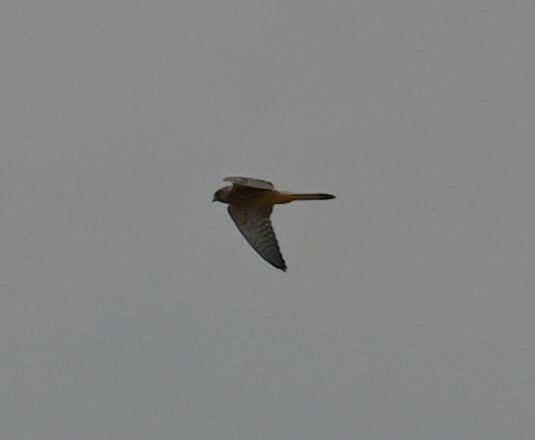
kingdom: Animalia
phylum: Chordata
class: Aves
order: Falconiformes
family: Falconidae
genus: Falco
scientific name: Falco tinnunculus
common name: Common kestrel
